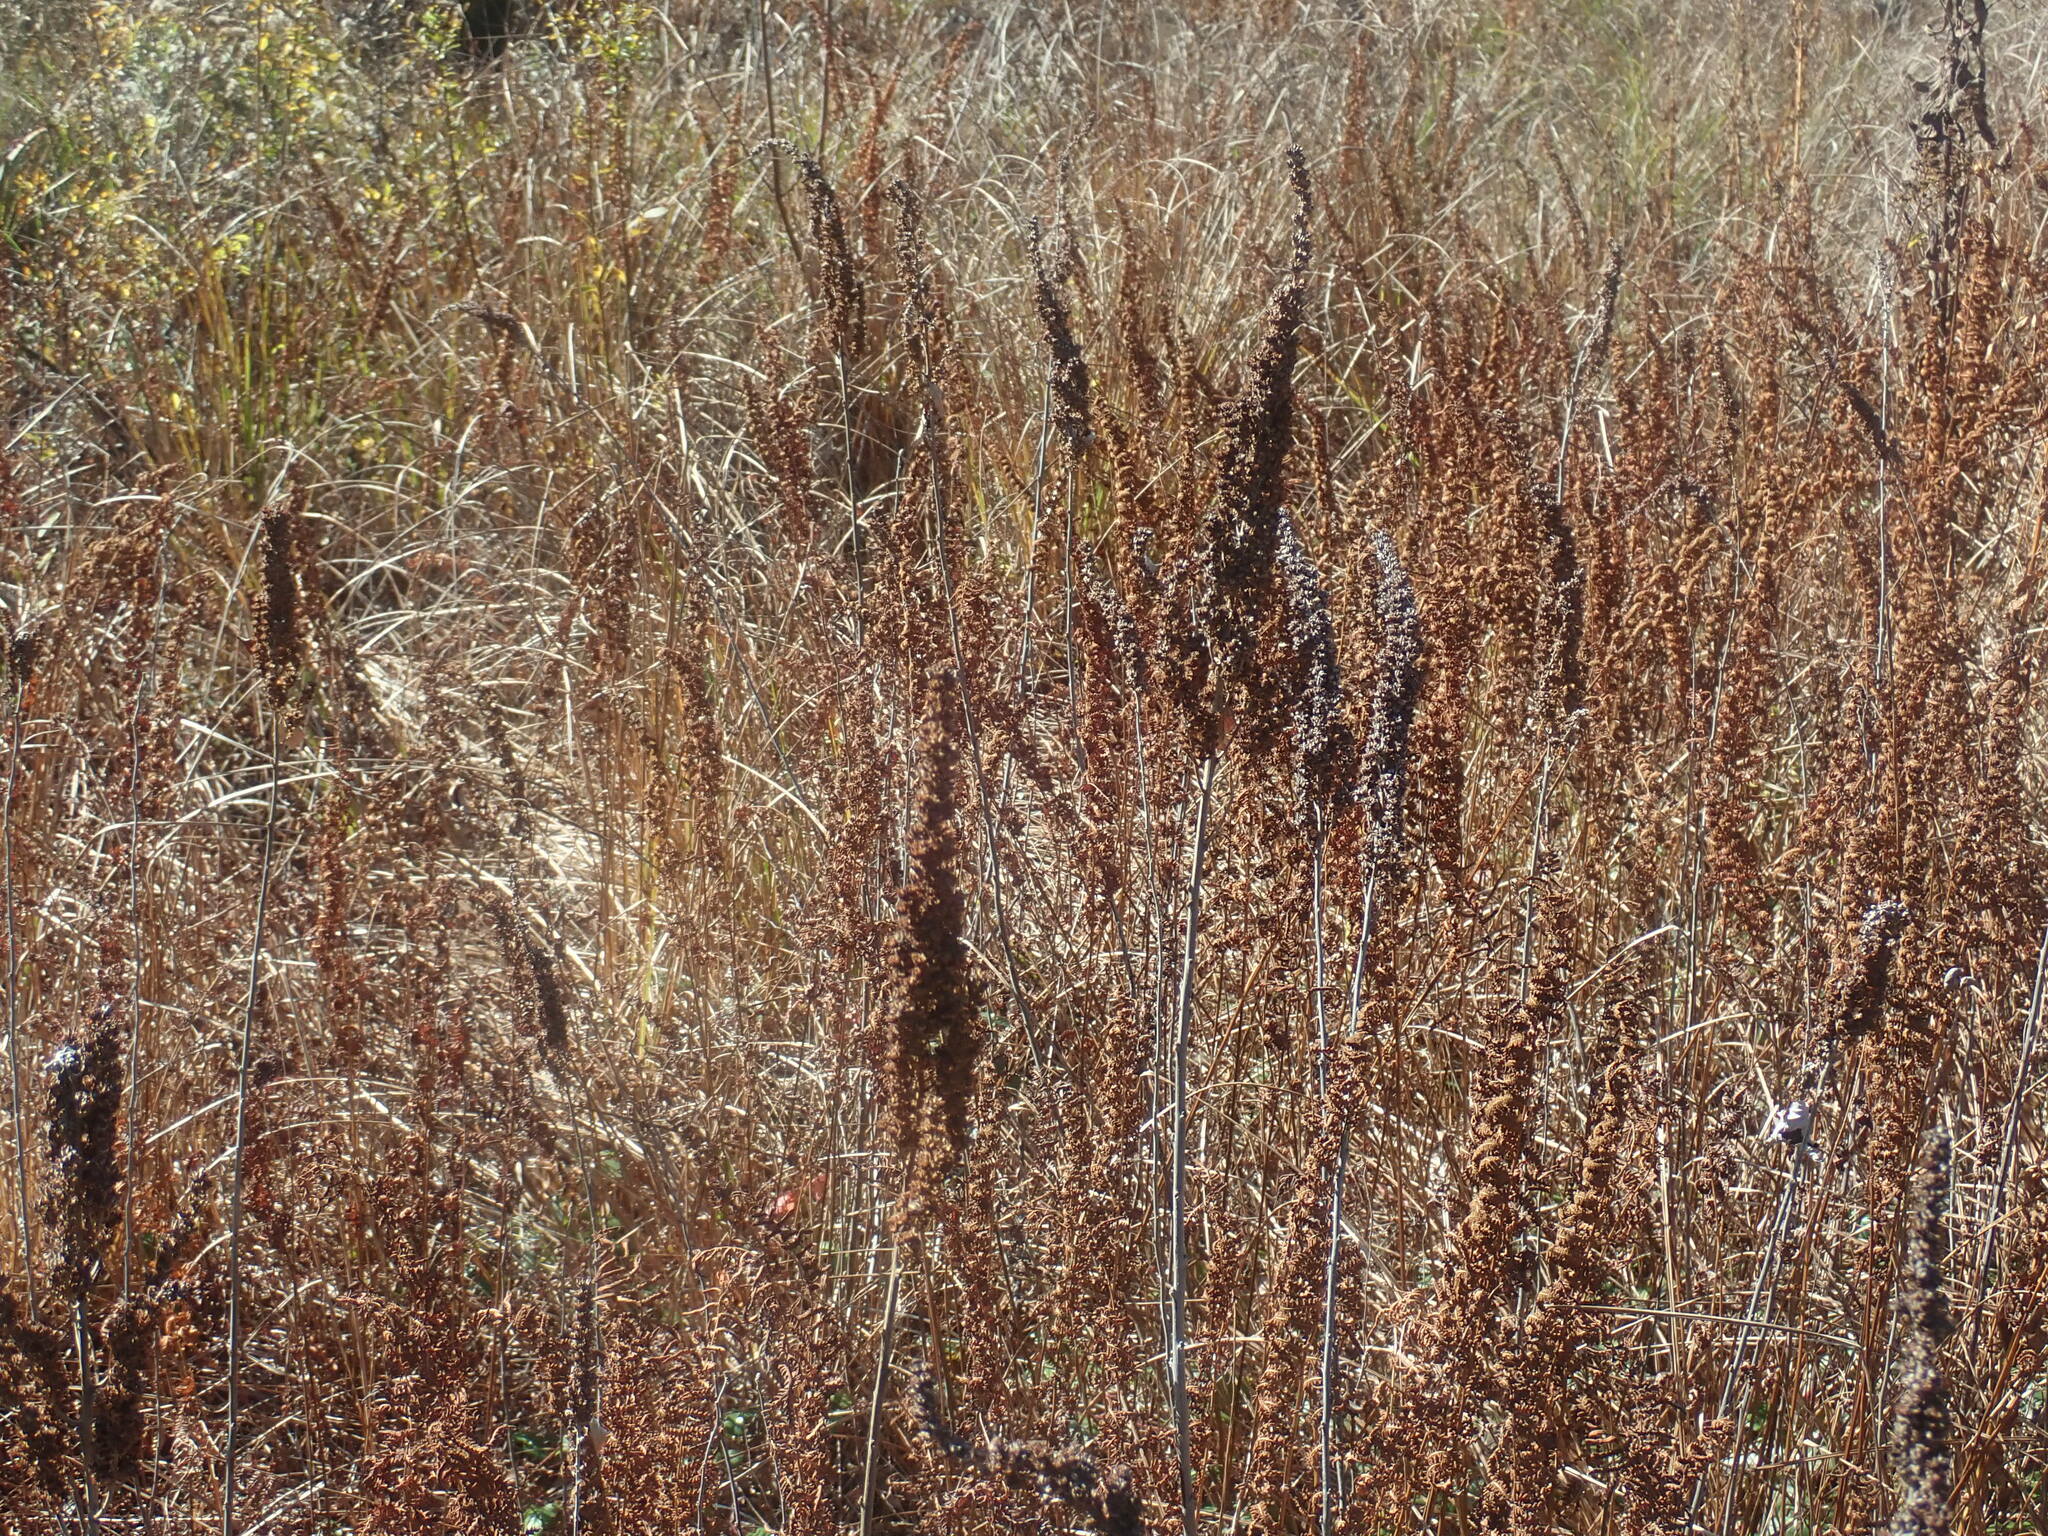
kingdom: Plantae
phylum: Tracheophyta
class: Magnoliopsida
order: Rosales
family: Rosaceae
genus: Spiraea
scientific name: Spiraea tomentosa
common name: Hardhack
